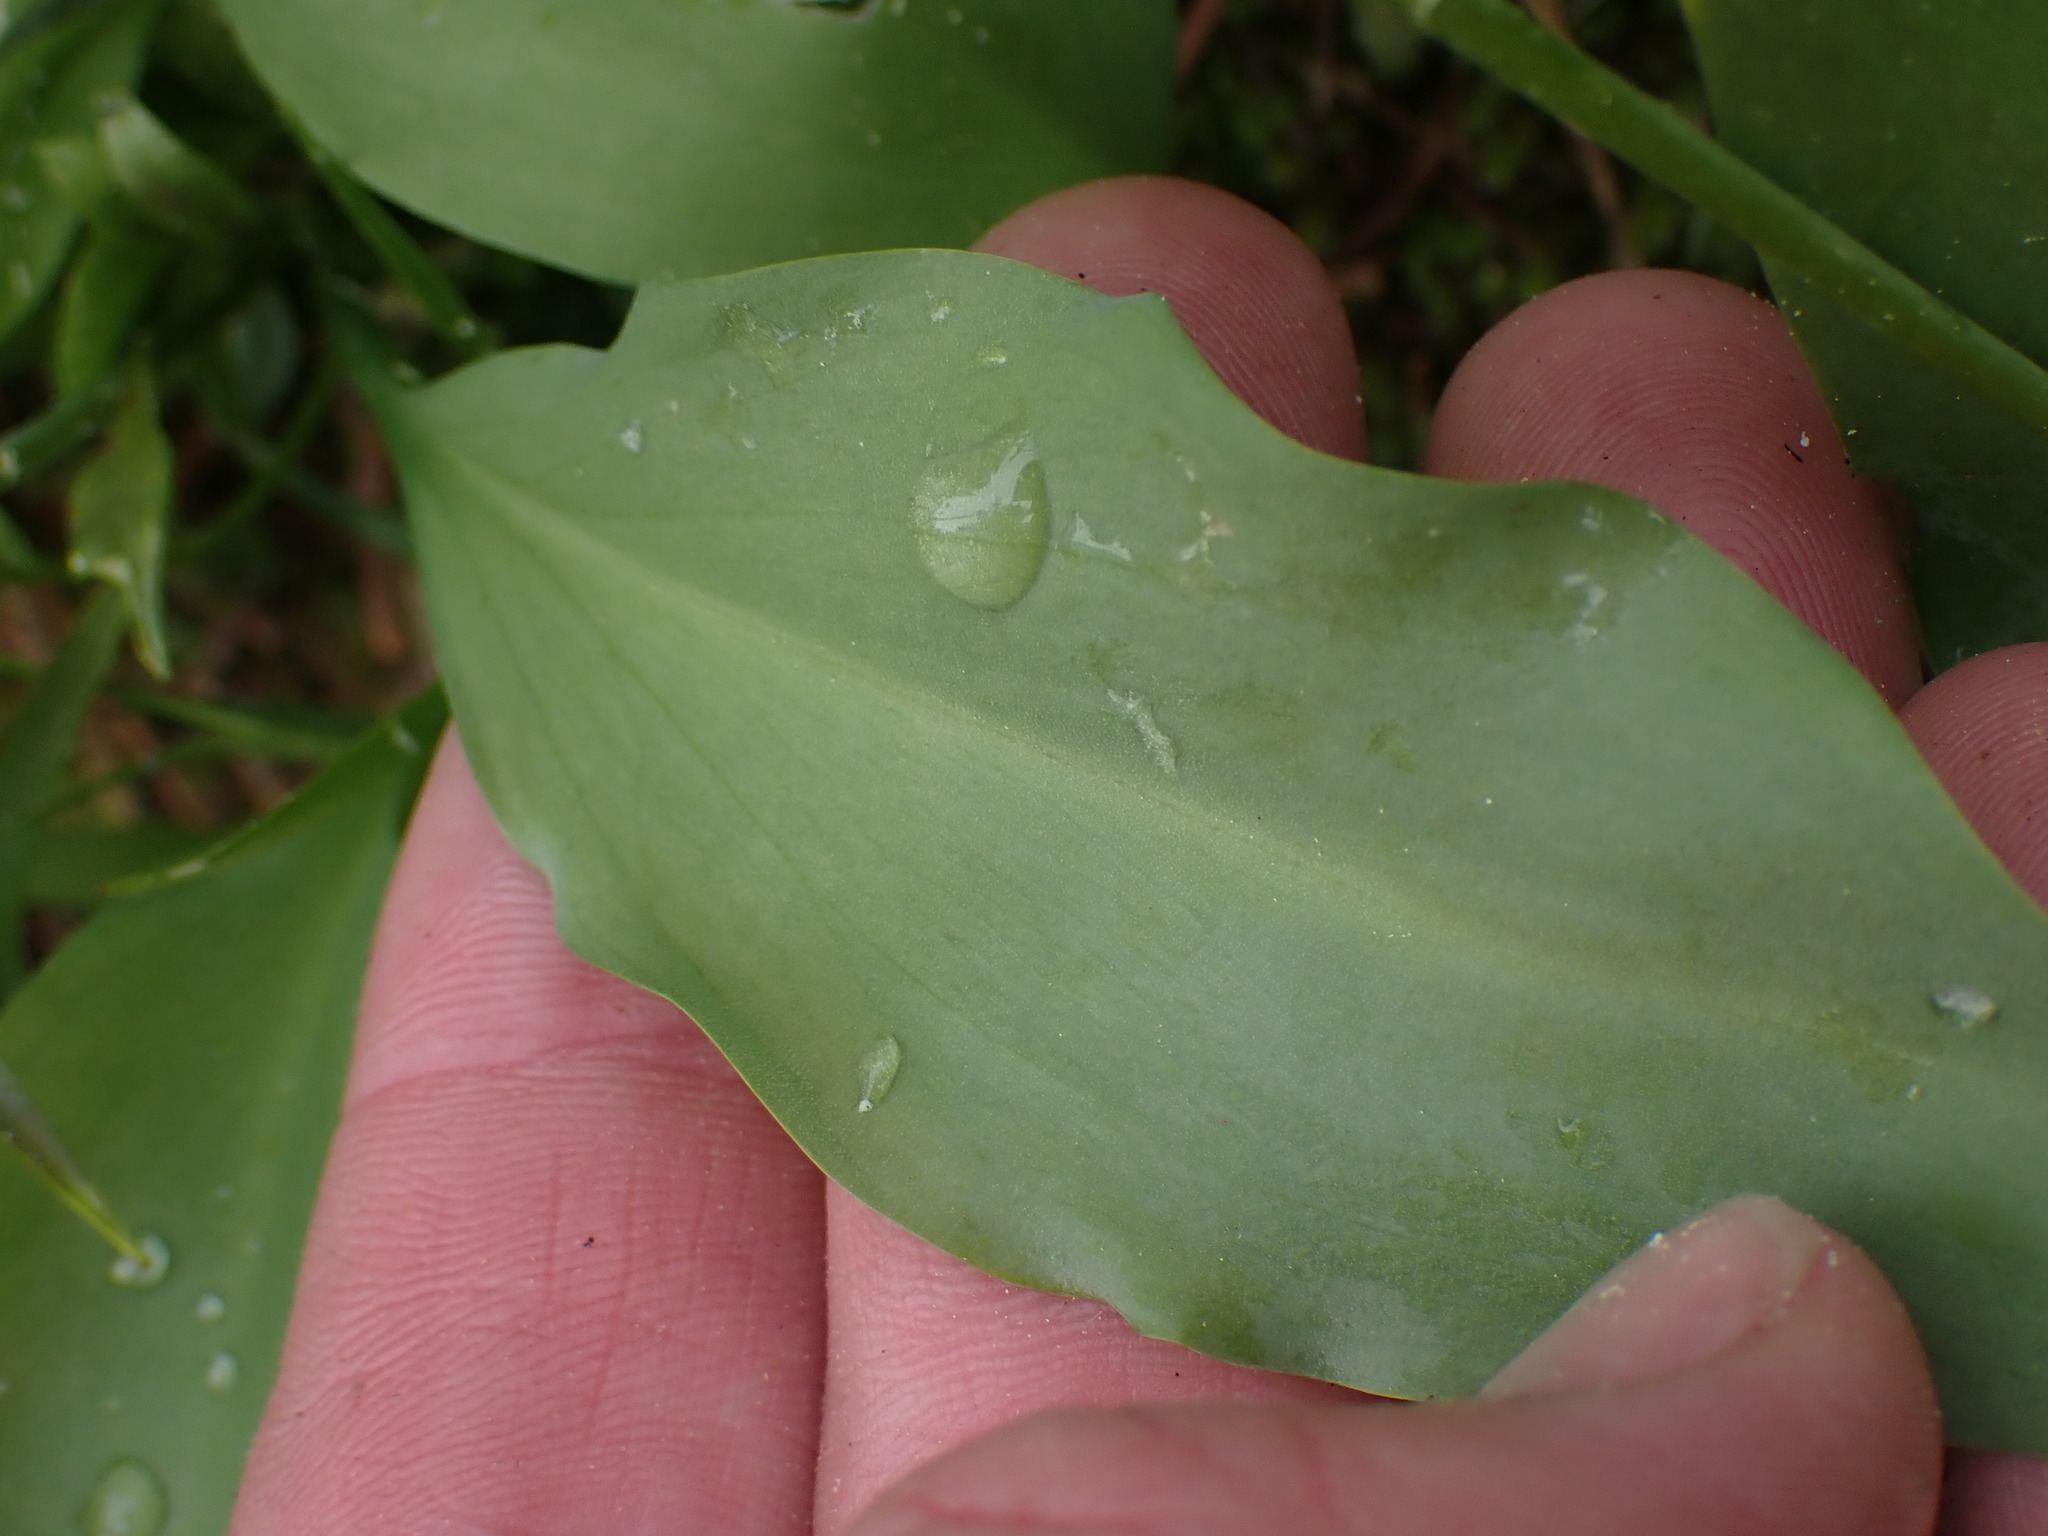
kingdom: Plantae
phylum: Tracheophyta
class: Liliopsida
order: Liliales
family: Liliaceae
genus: Erythronium
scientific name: Erythronium grandiflorum
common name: Avalanche-lily
